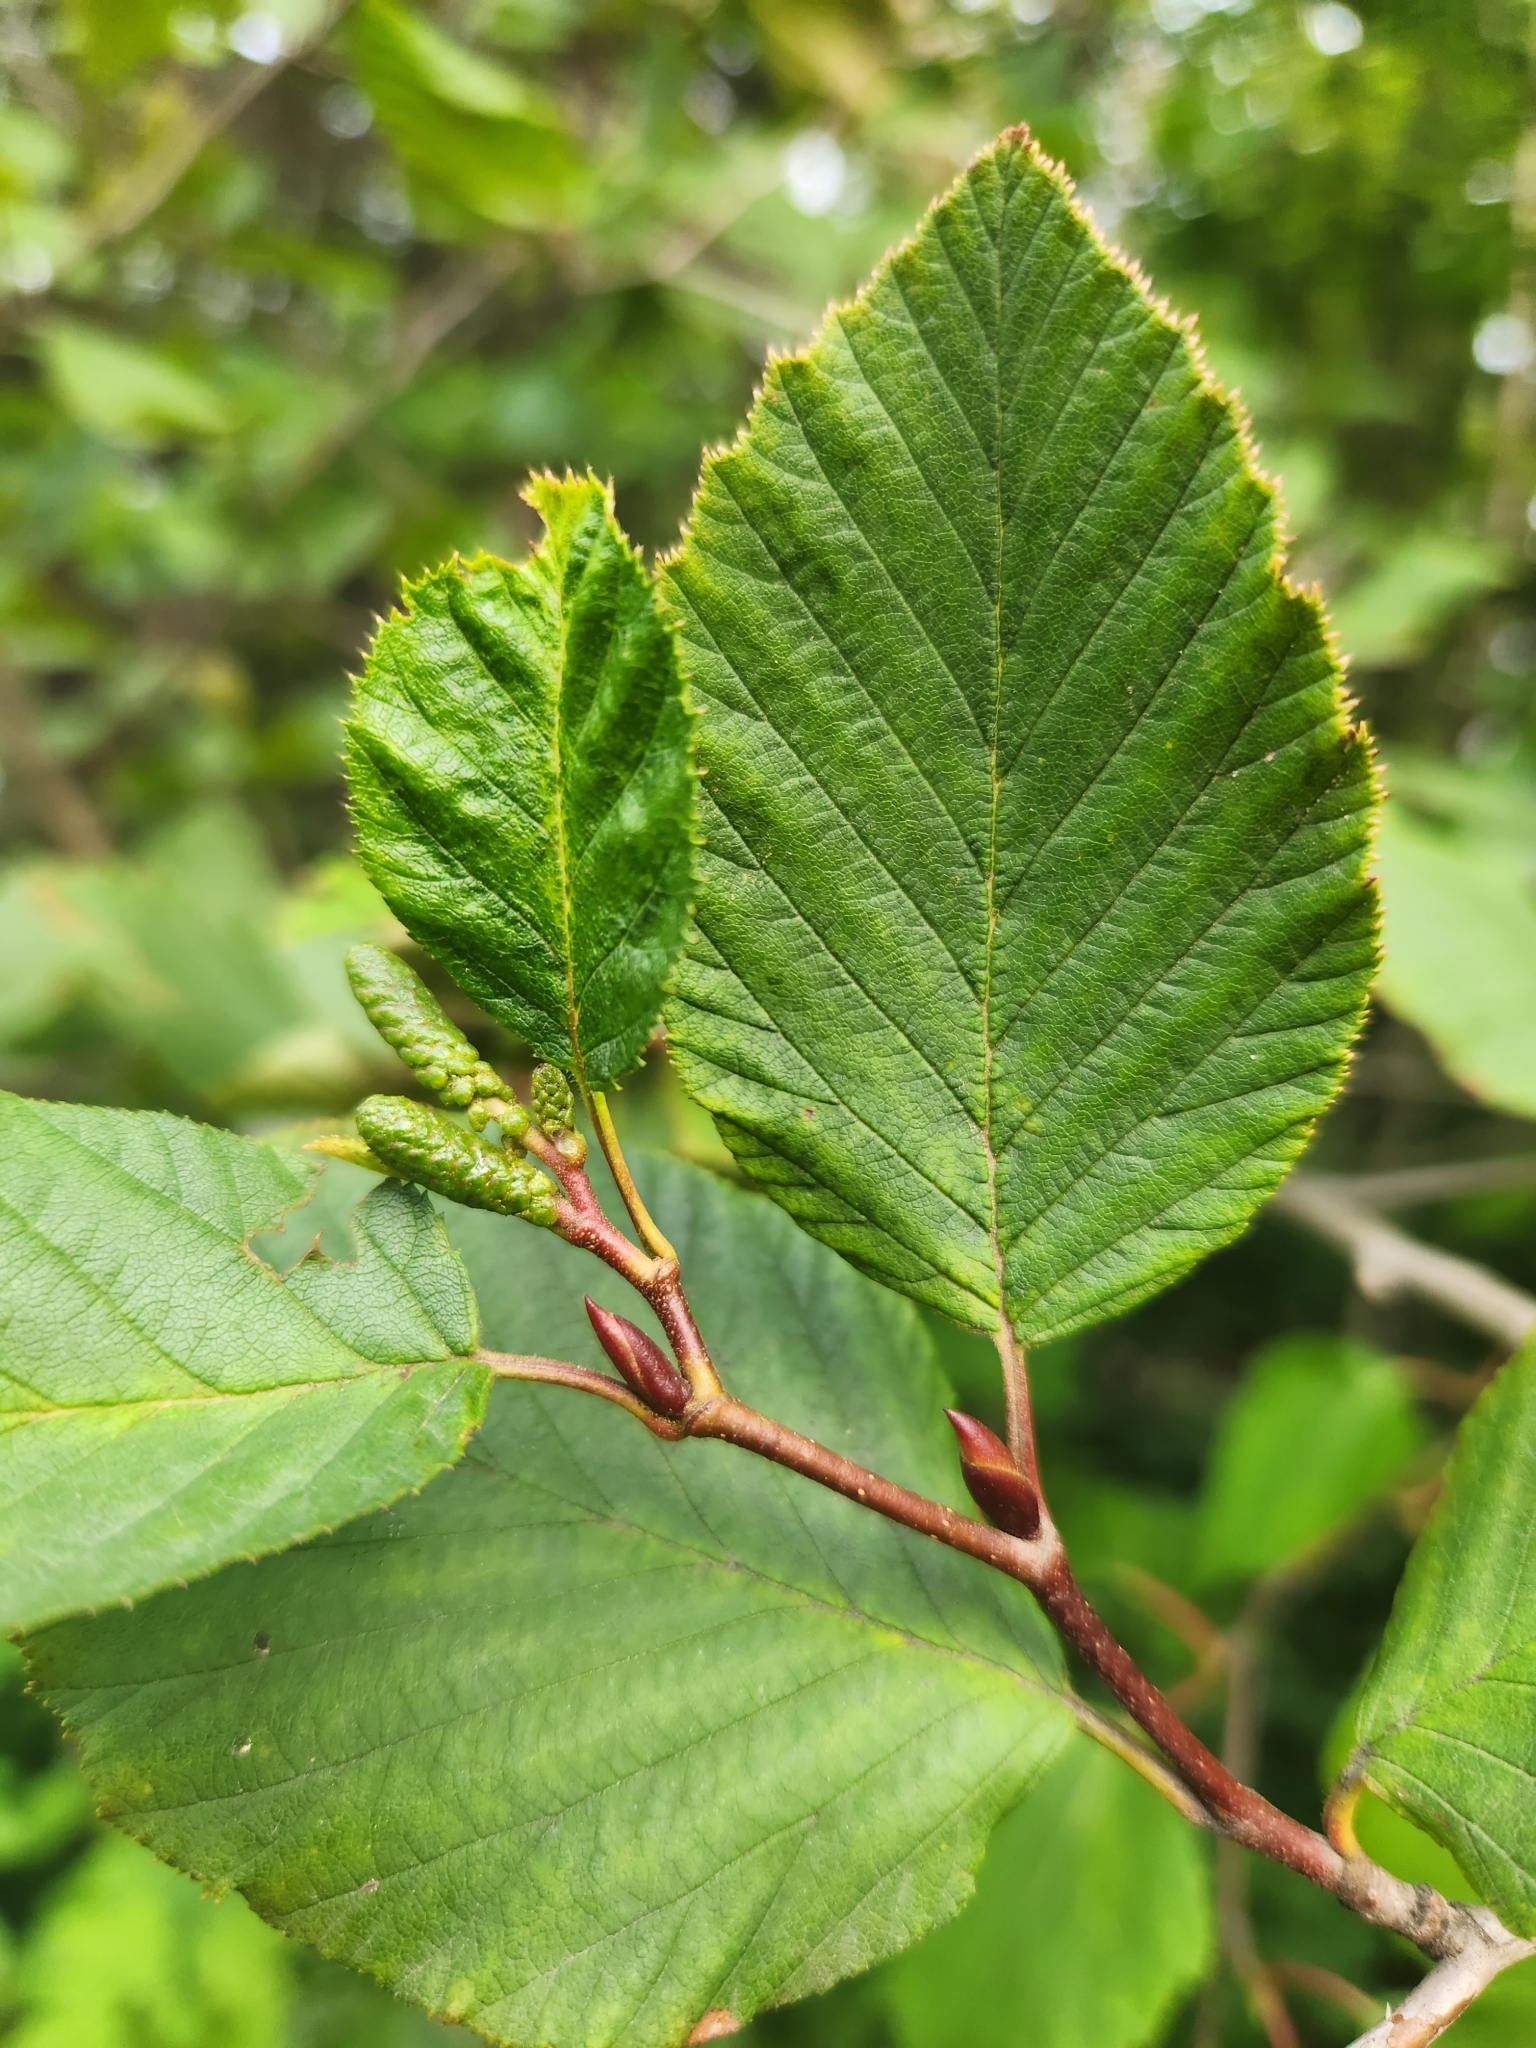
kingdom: Plantae
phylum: Tracheophyta
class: Magnoliopsida
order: Fagales
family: Betulaceae
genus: Alnus
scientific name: Alnus alnobetula
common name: Green alder
